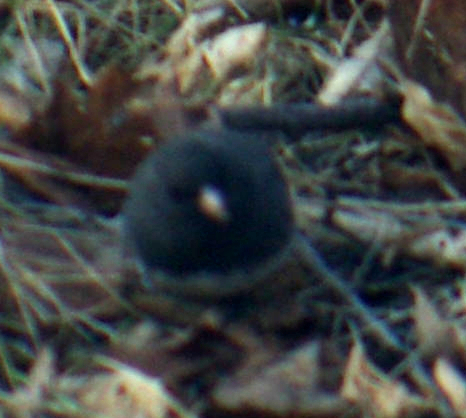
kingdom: Animalia
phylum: Chordata
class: Aves
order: Passeriformes
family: Passerellidae
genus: Junco
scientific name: Junco hyemalis
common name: Dark-eyed junco
